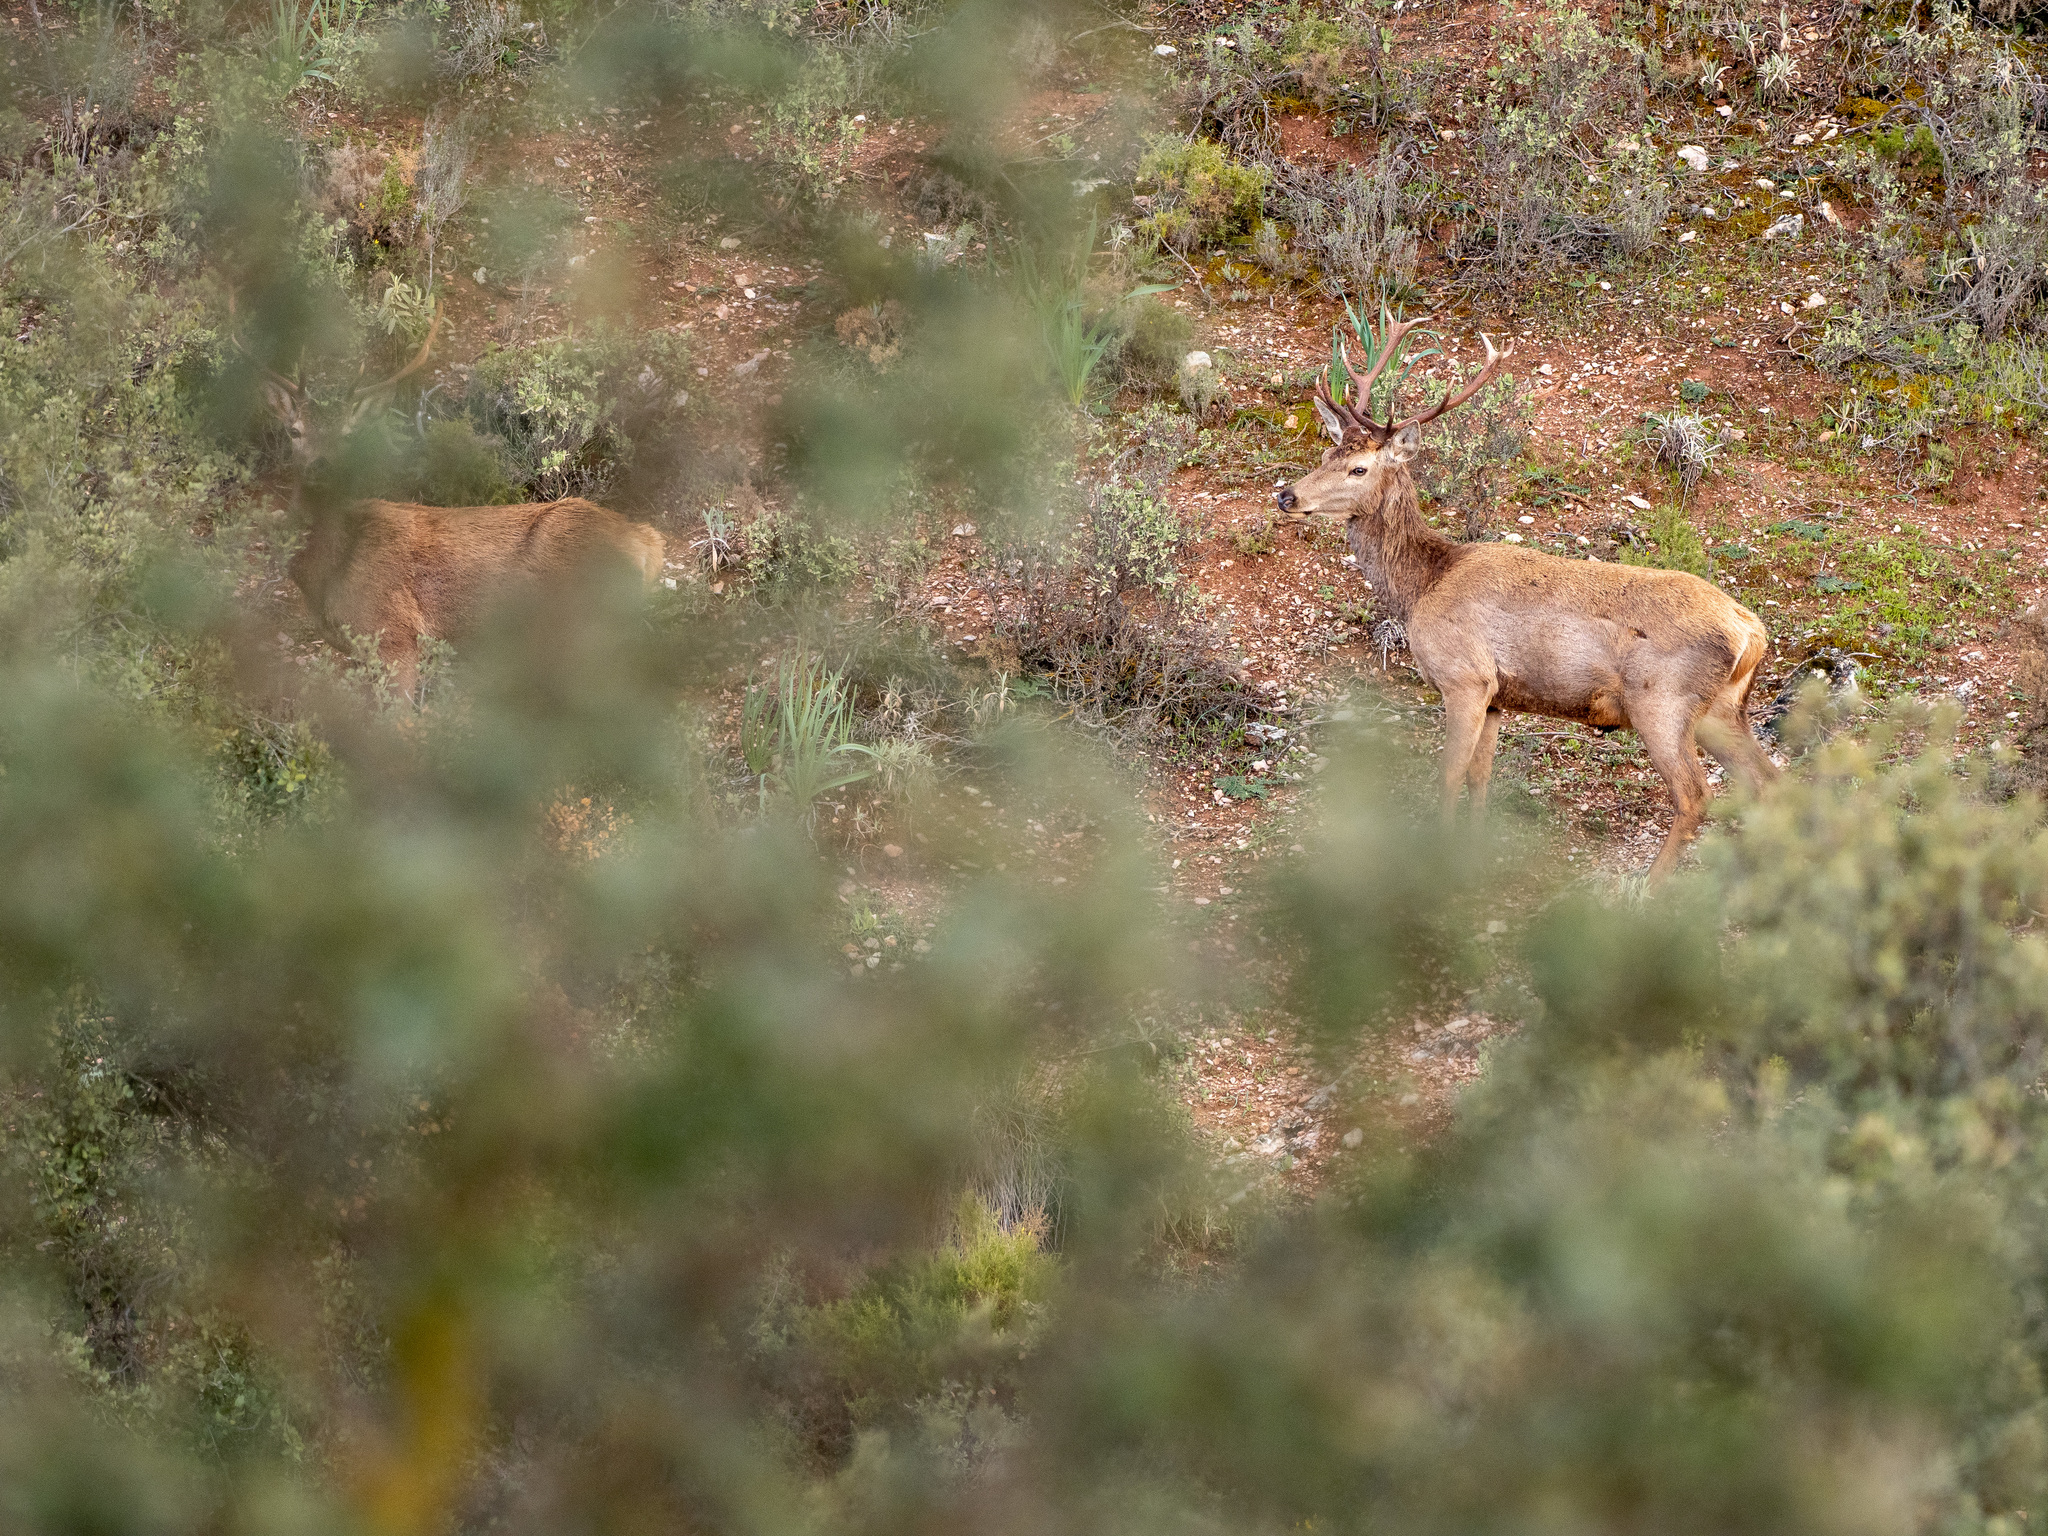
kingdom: Animalia
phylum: Chordata
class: Mammalia
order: Artiodactyla
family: Cervidae
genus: Cervus
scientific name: Cervus elaphus
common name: Red deer
